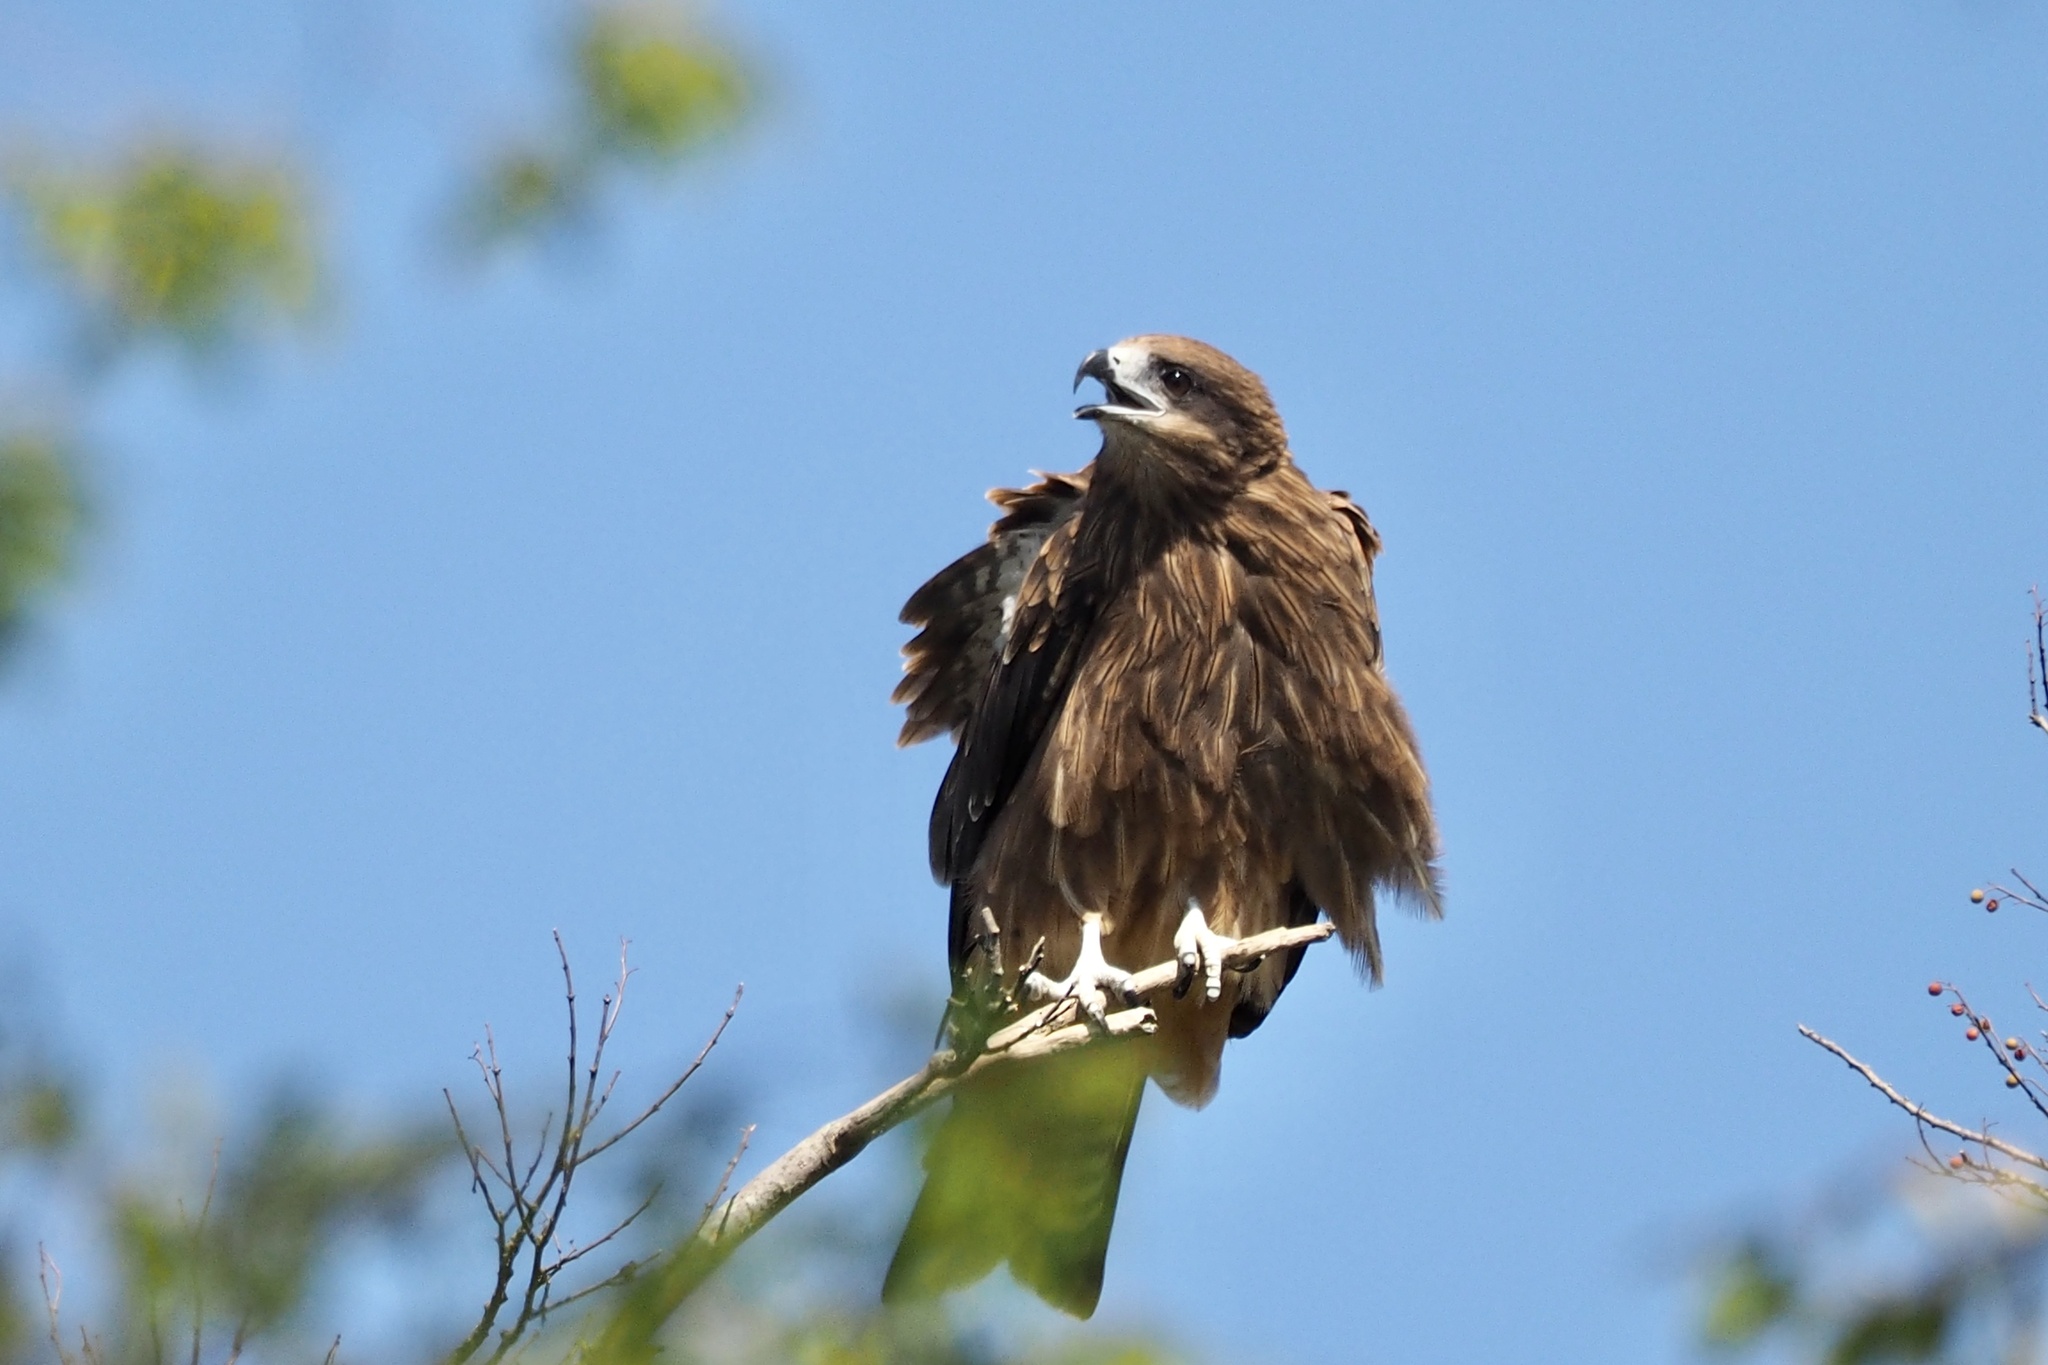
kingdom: Animalia
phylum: Chordata
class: Aves
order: Accipitriformes
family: Accipitridae
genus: Milvus
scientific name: Milvus migrans
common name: Black kite
